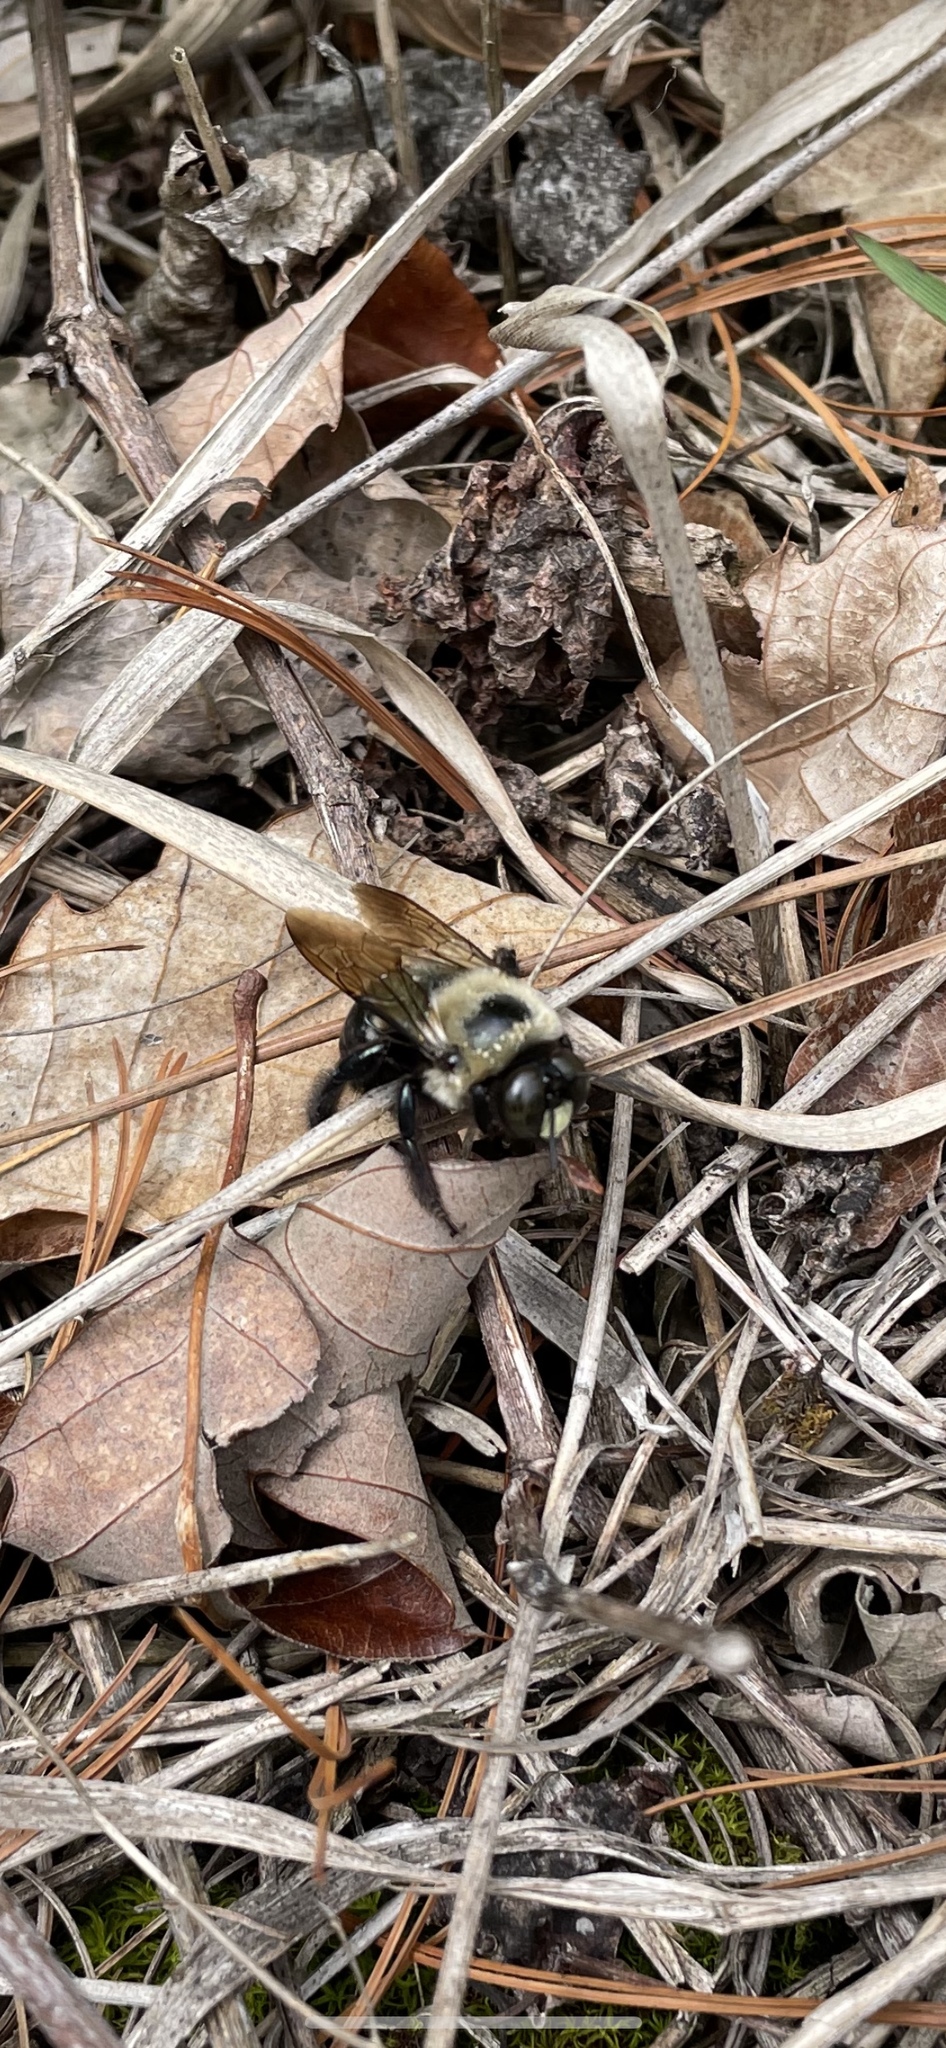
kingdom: Animalia
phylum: Arthropoda
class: Insecta
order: Hymenoptera
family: Apidae
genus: Xylocopa
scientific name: Xylocopa virginica
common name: Carpenter bee
